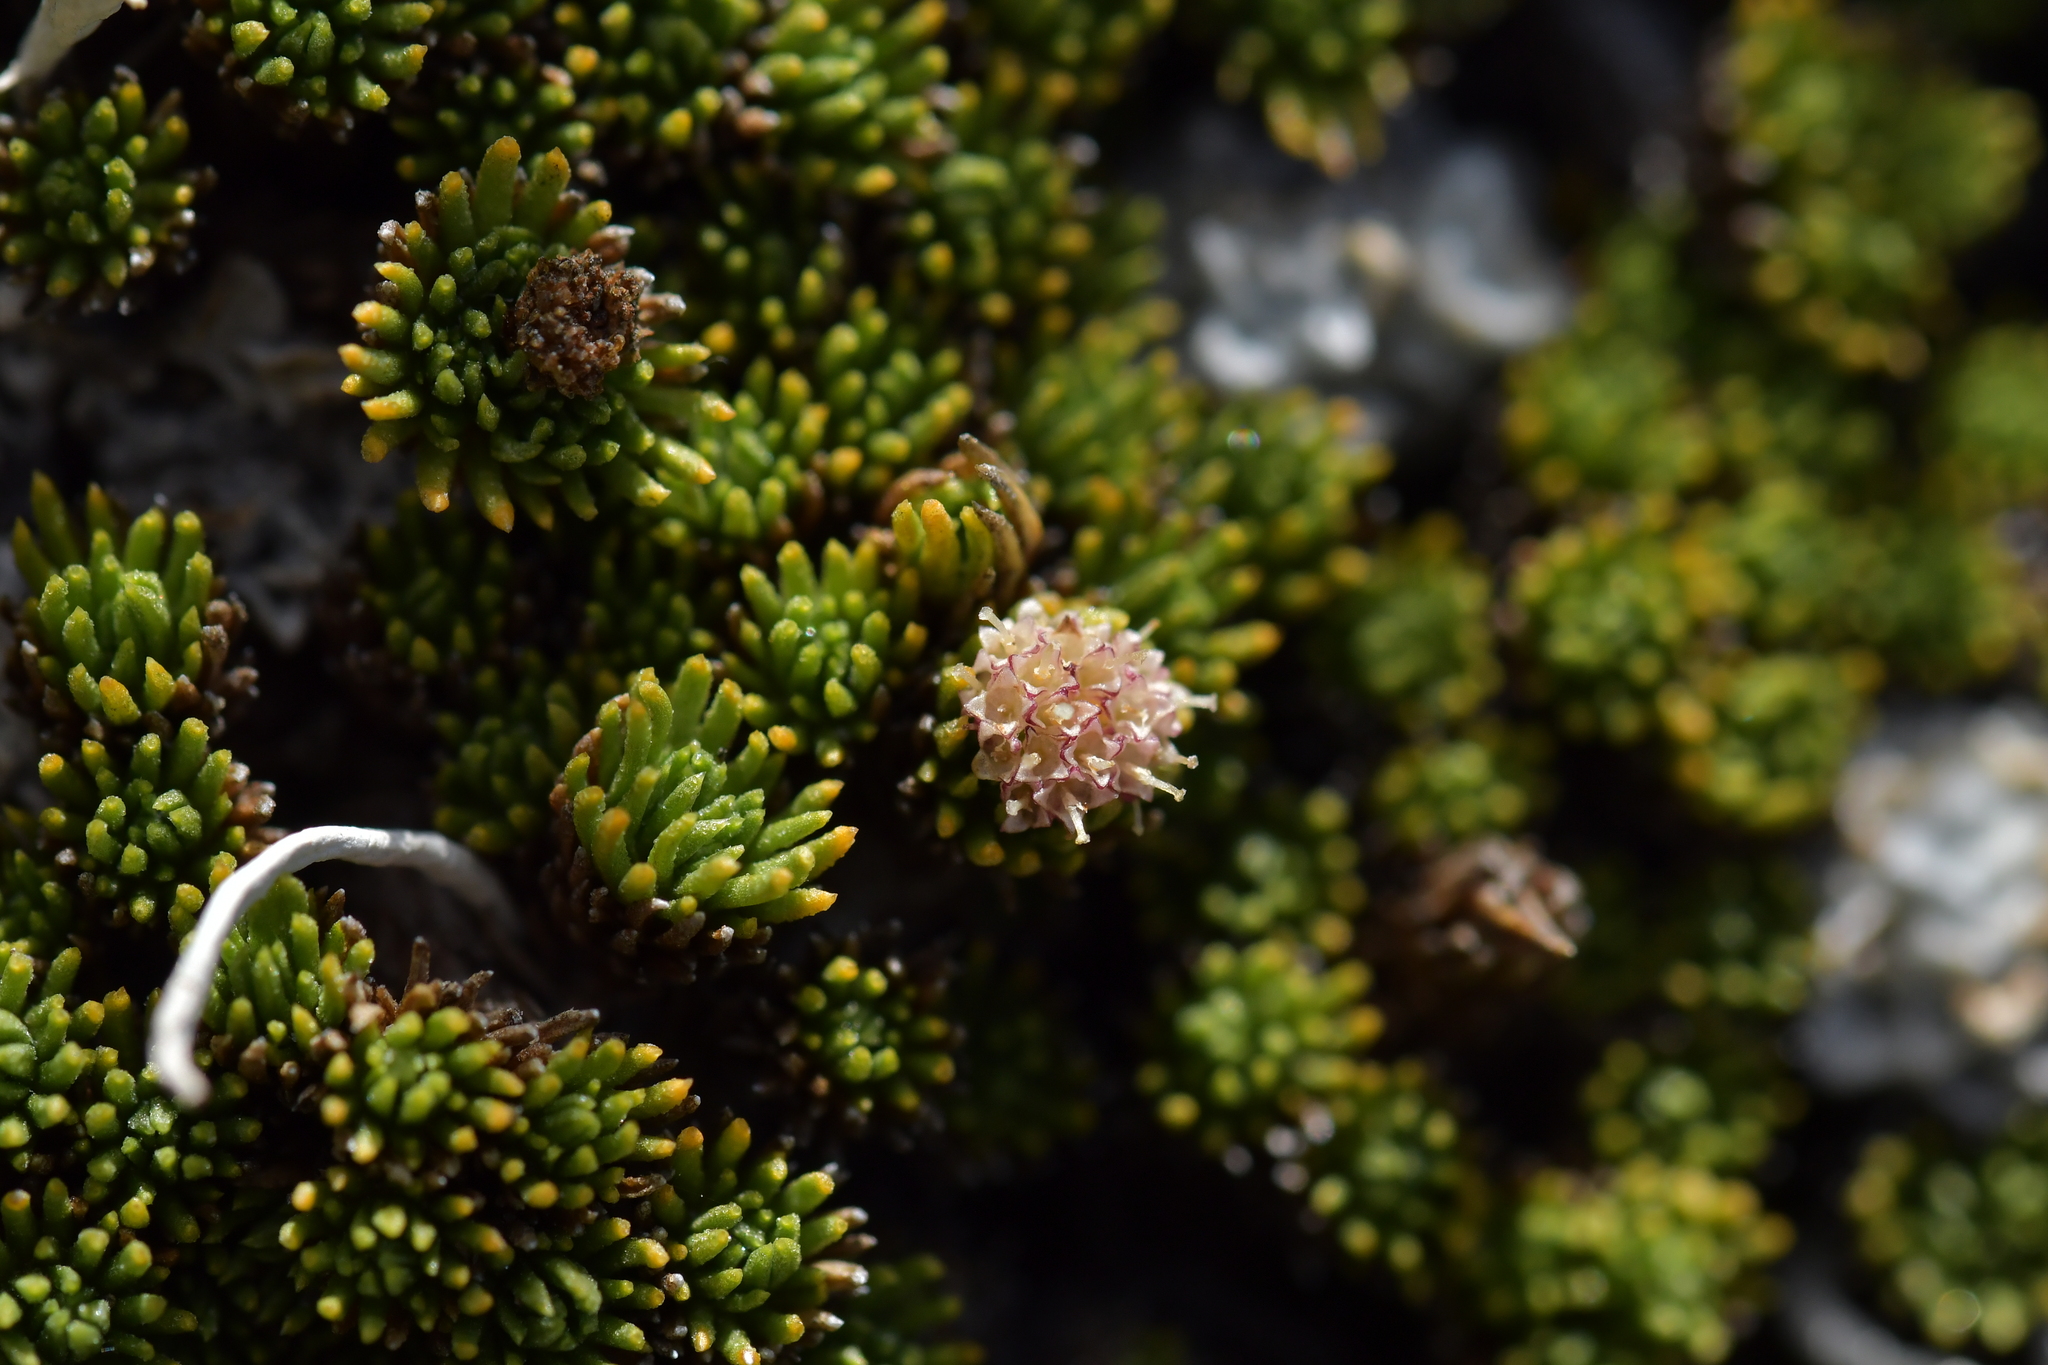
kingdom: Plantae
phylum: Tracheophyta
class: Magnoliopsida
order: Asterales
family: Asteraceae
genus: Leptinella
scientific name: Leptinella goyenii
